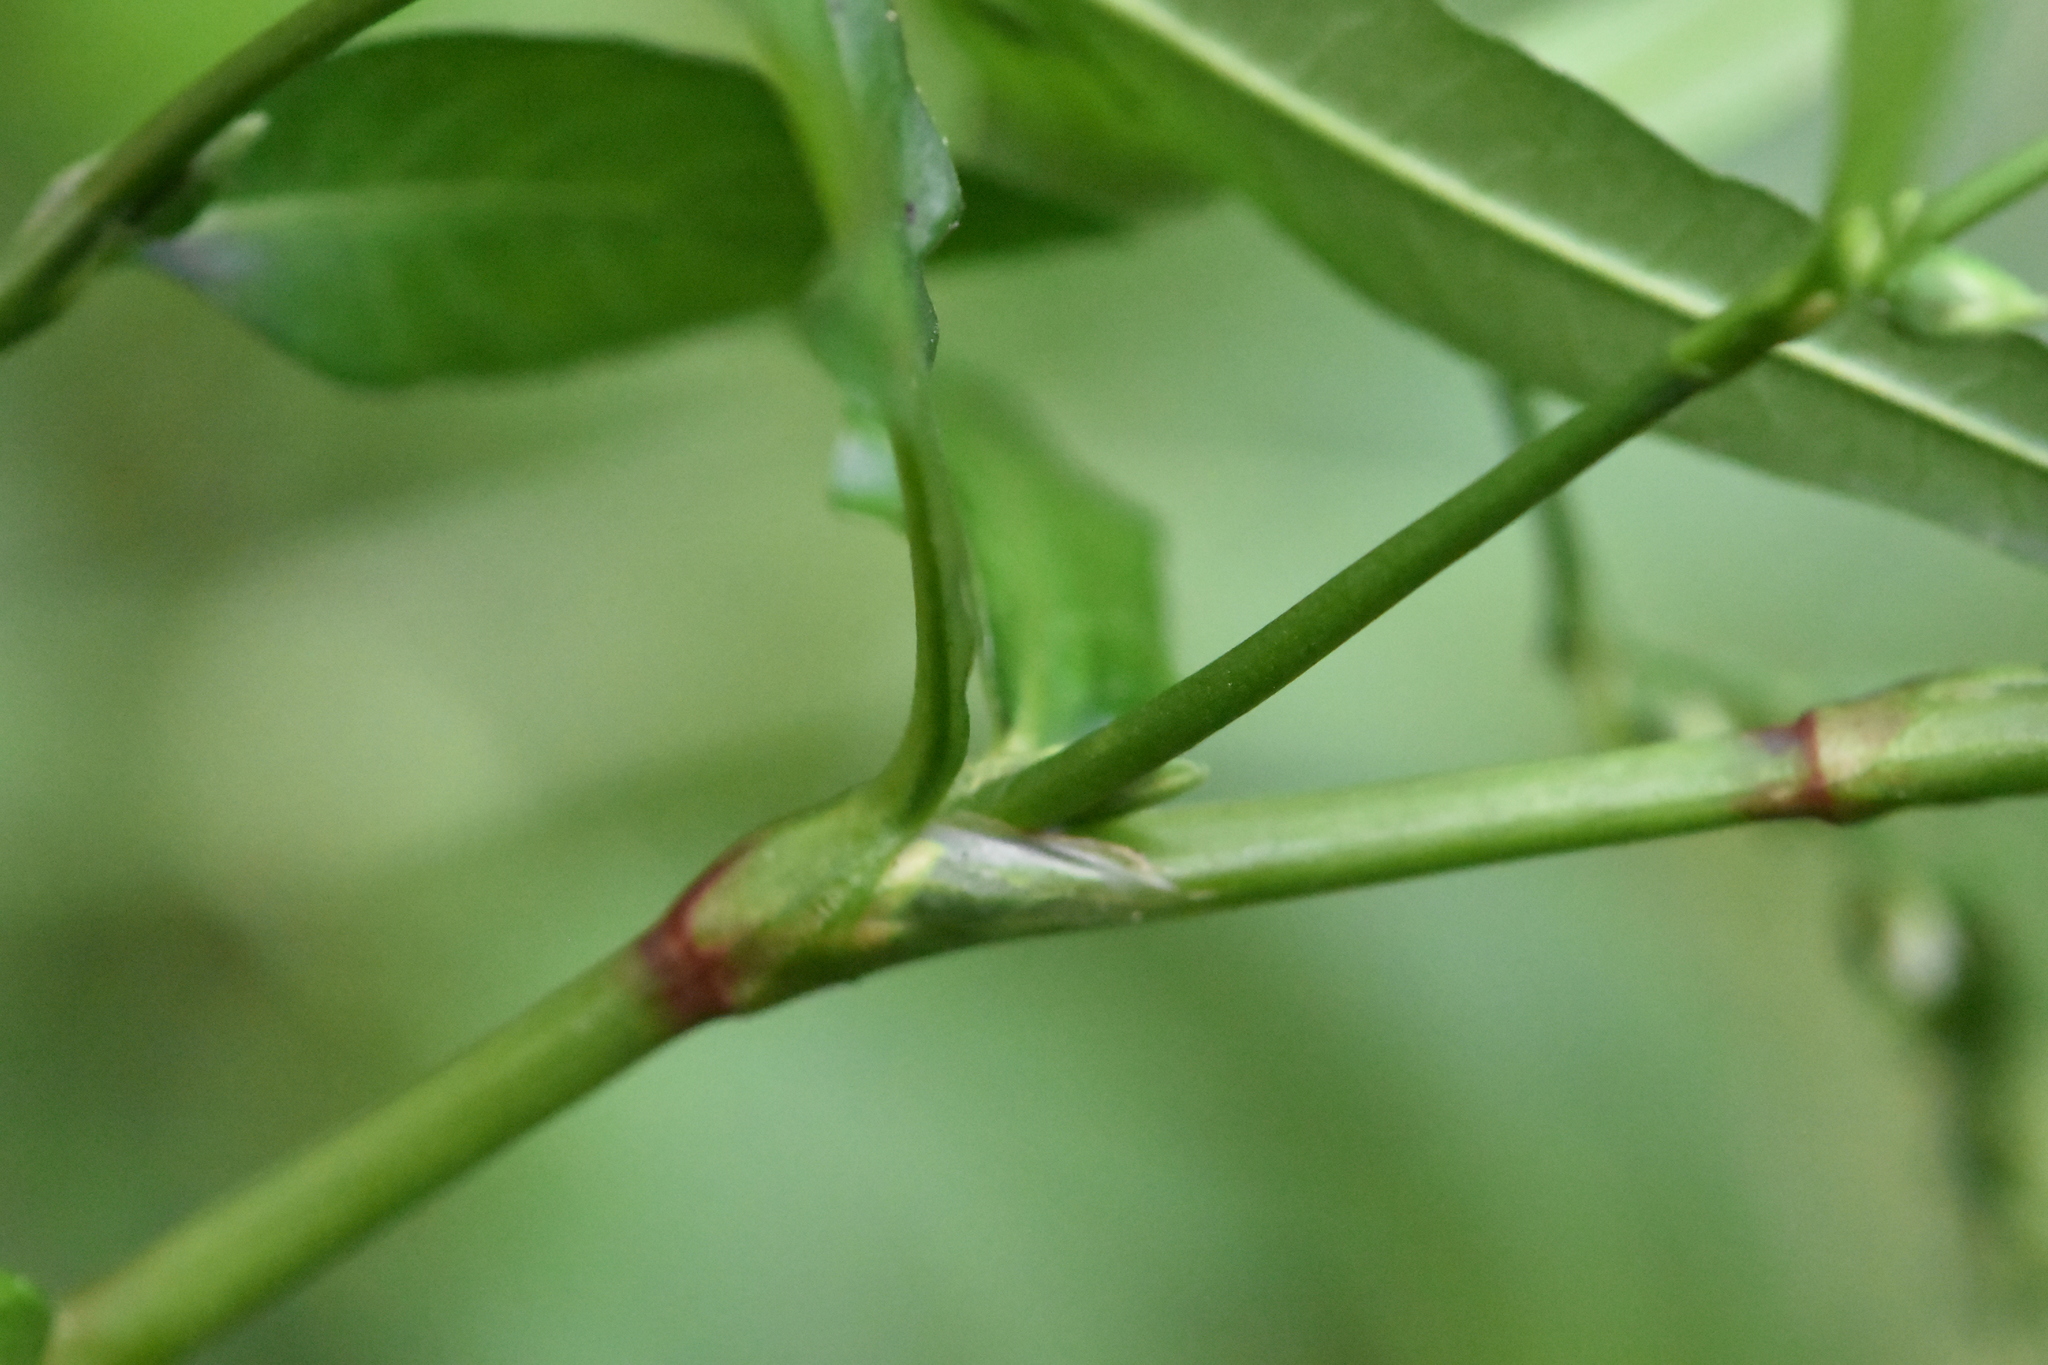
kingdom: Plantae
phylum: Tracheophyta
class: Magnoliopsida
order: Caryophyllales
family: Polygonaceae
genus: Persicaria
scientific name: Persicaria hydropiper
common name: Water-pepper
